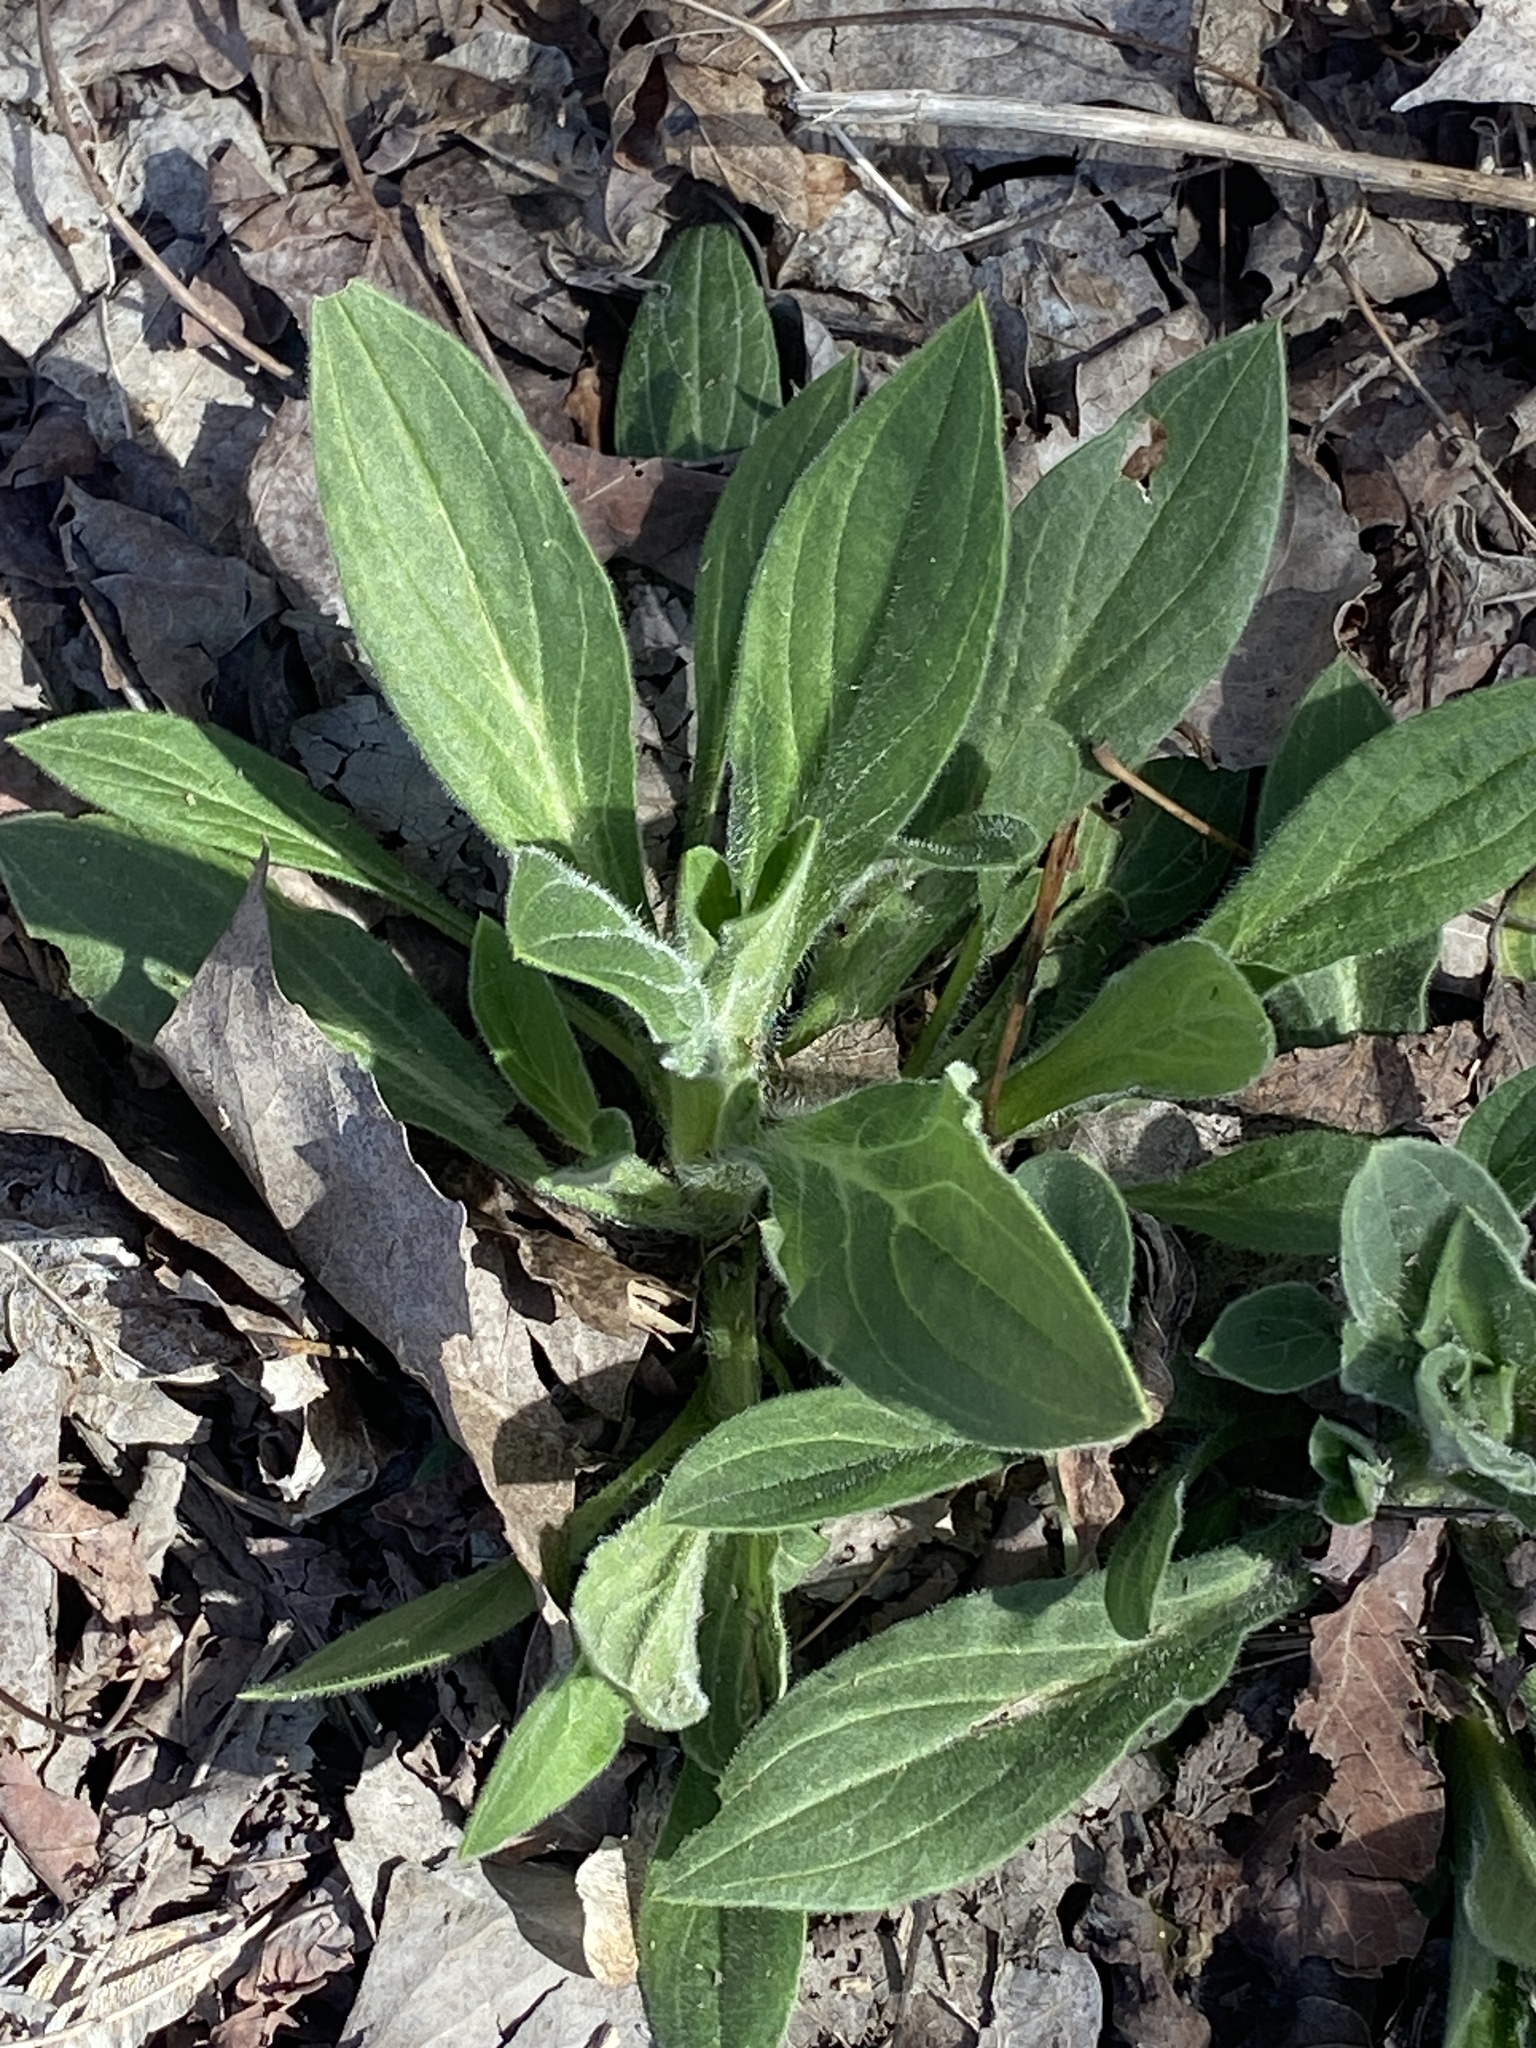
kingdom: Plantae
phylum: Tracheophyta
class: Magnoliopsida
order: Caryophyllales
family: Caryophyllaceae
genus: Silene
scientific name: Silene latifolia
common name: White campion
